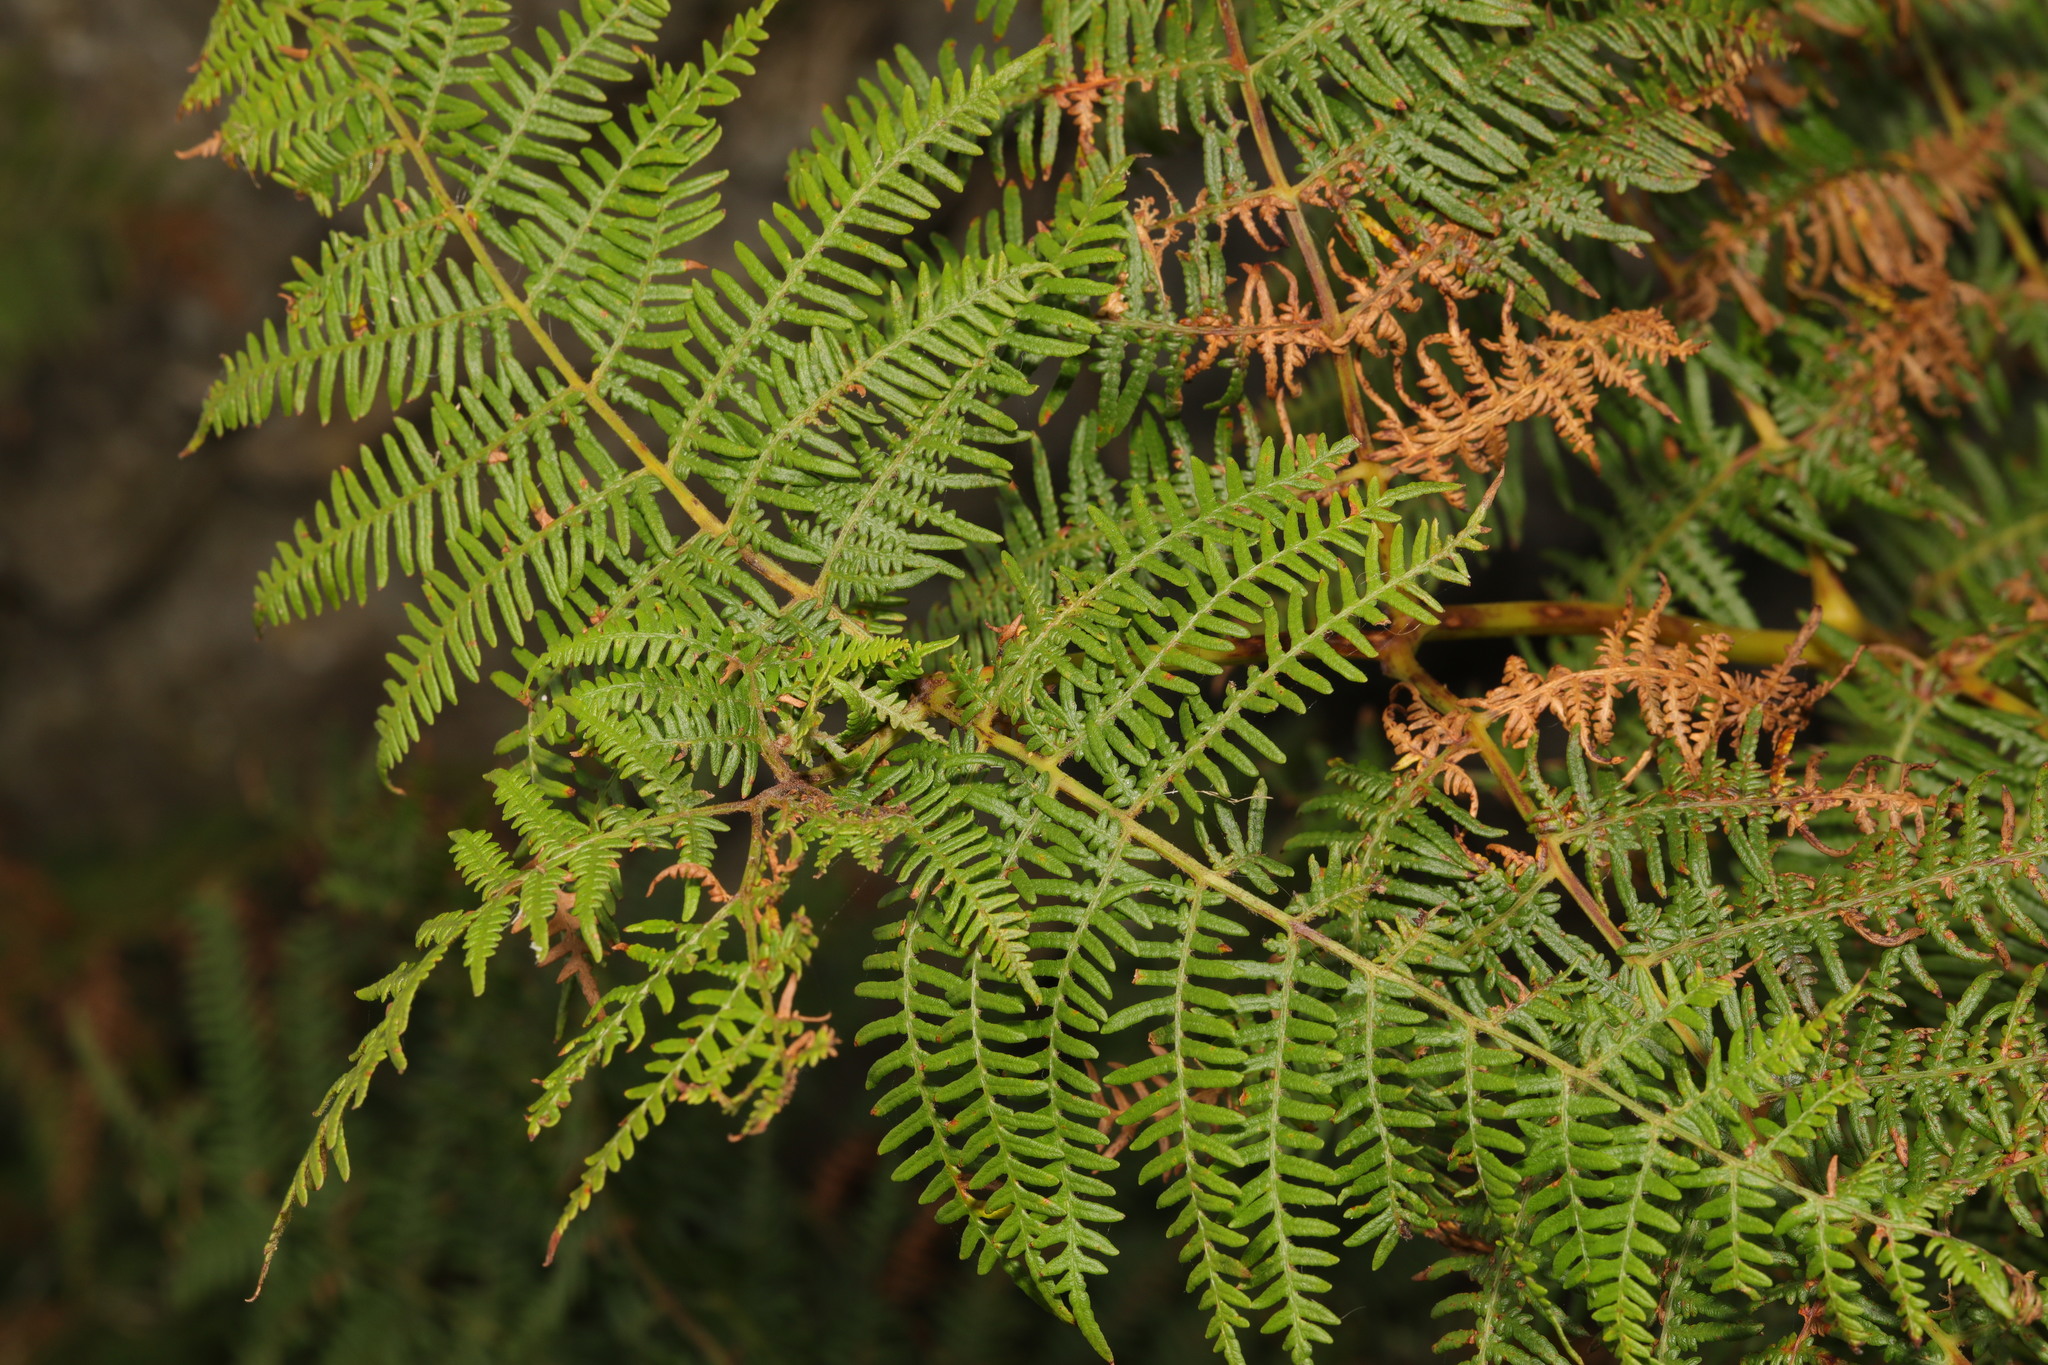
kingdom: Plantae
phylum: Tracheophyta
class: Polypodiopsida
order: Polypodiales
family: Dennstaedtiaceae
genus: Pteridium
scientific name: Pteridium aquilinum
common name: Bracken
